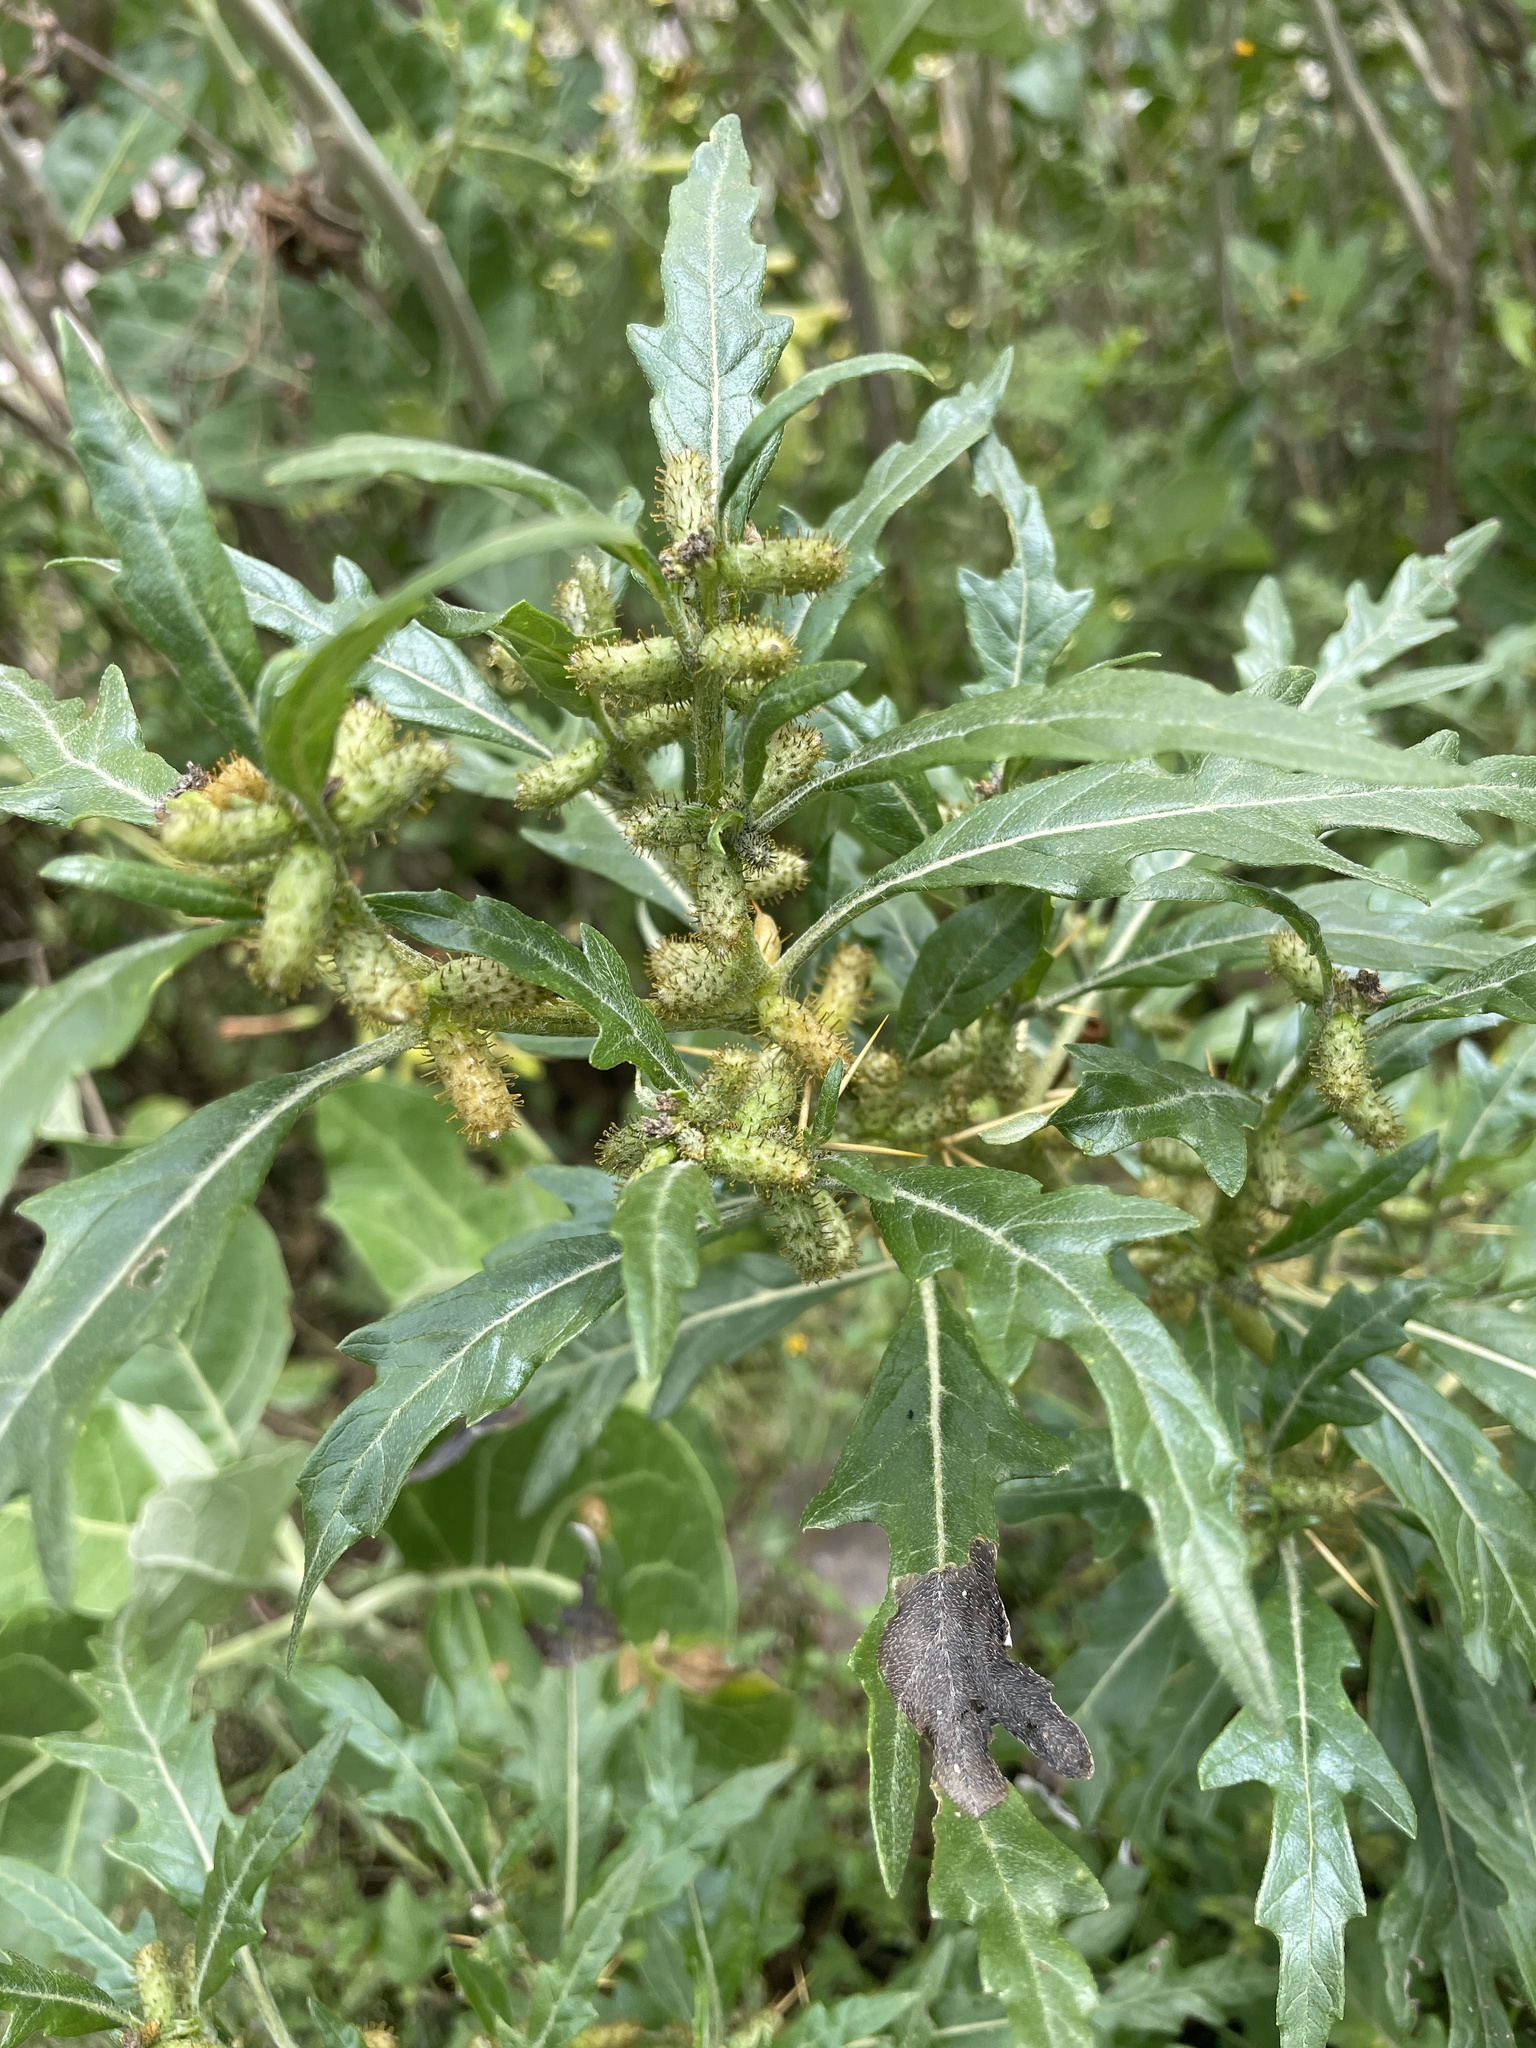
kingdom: Plantae
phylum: Tracheophyta
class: Magnoliopsida
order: Asterales
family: Asteraceae
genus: Xanthium
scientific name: Xanthium spinosum
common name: Spiny cocklebur
